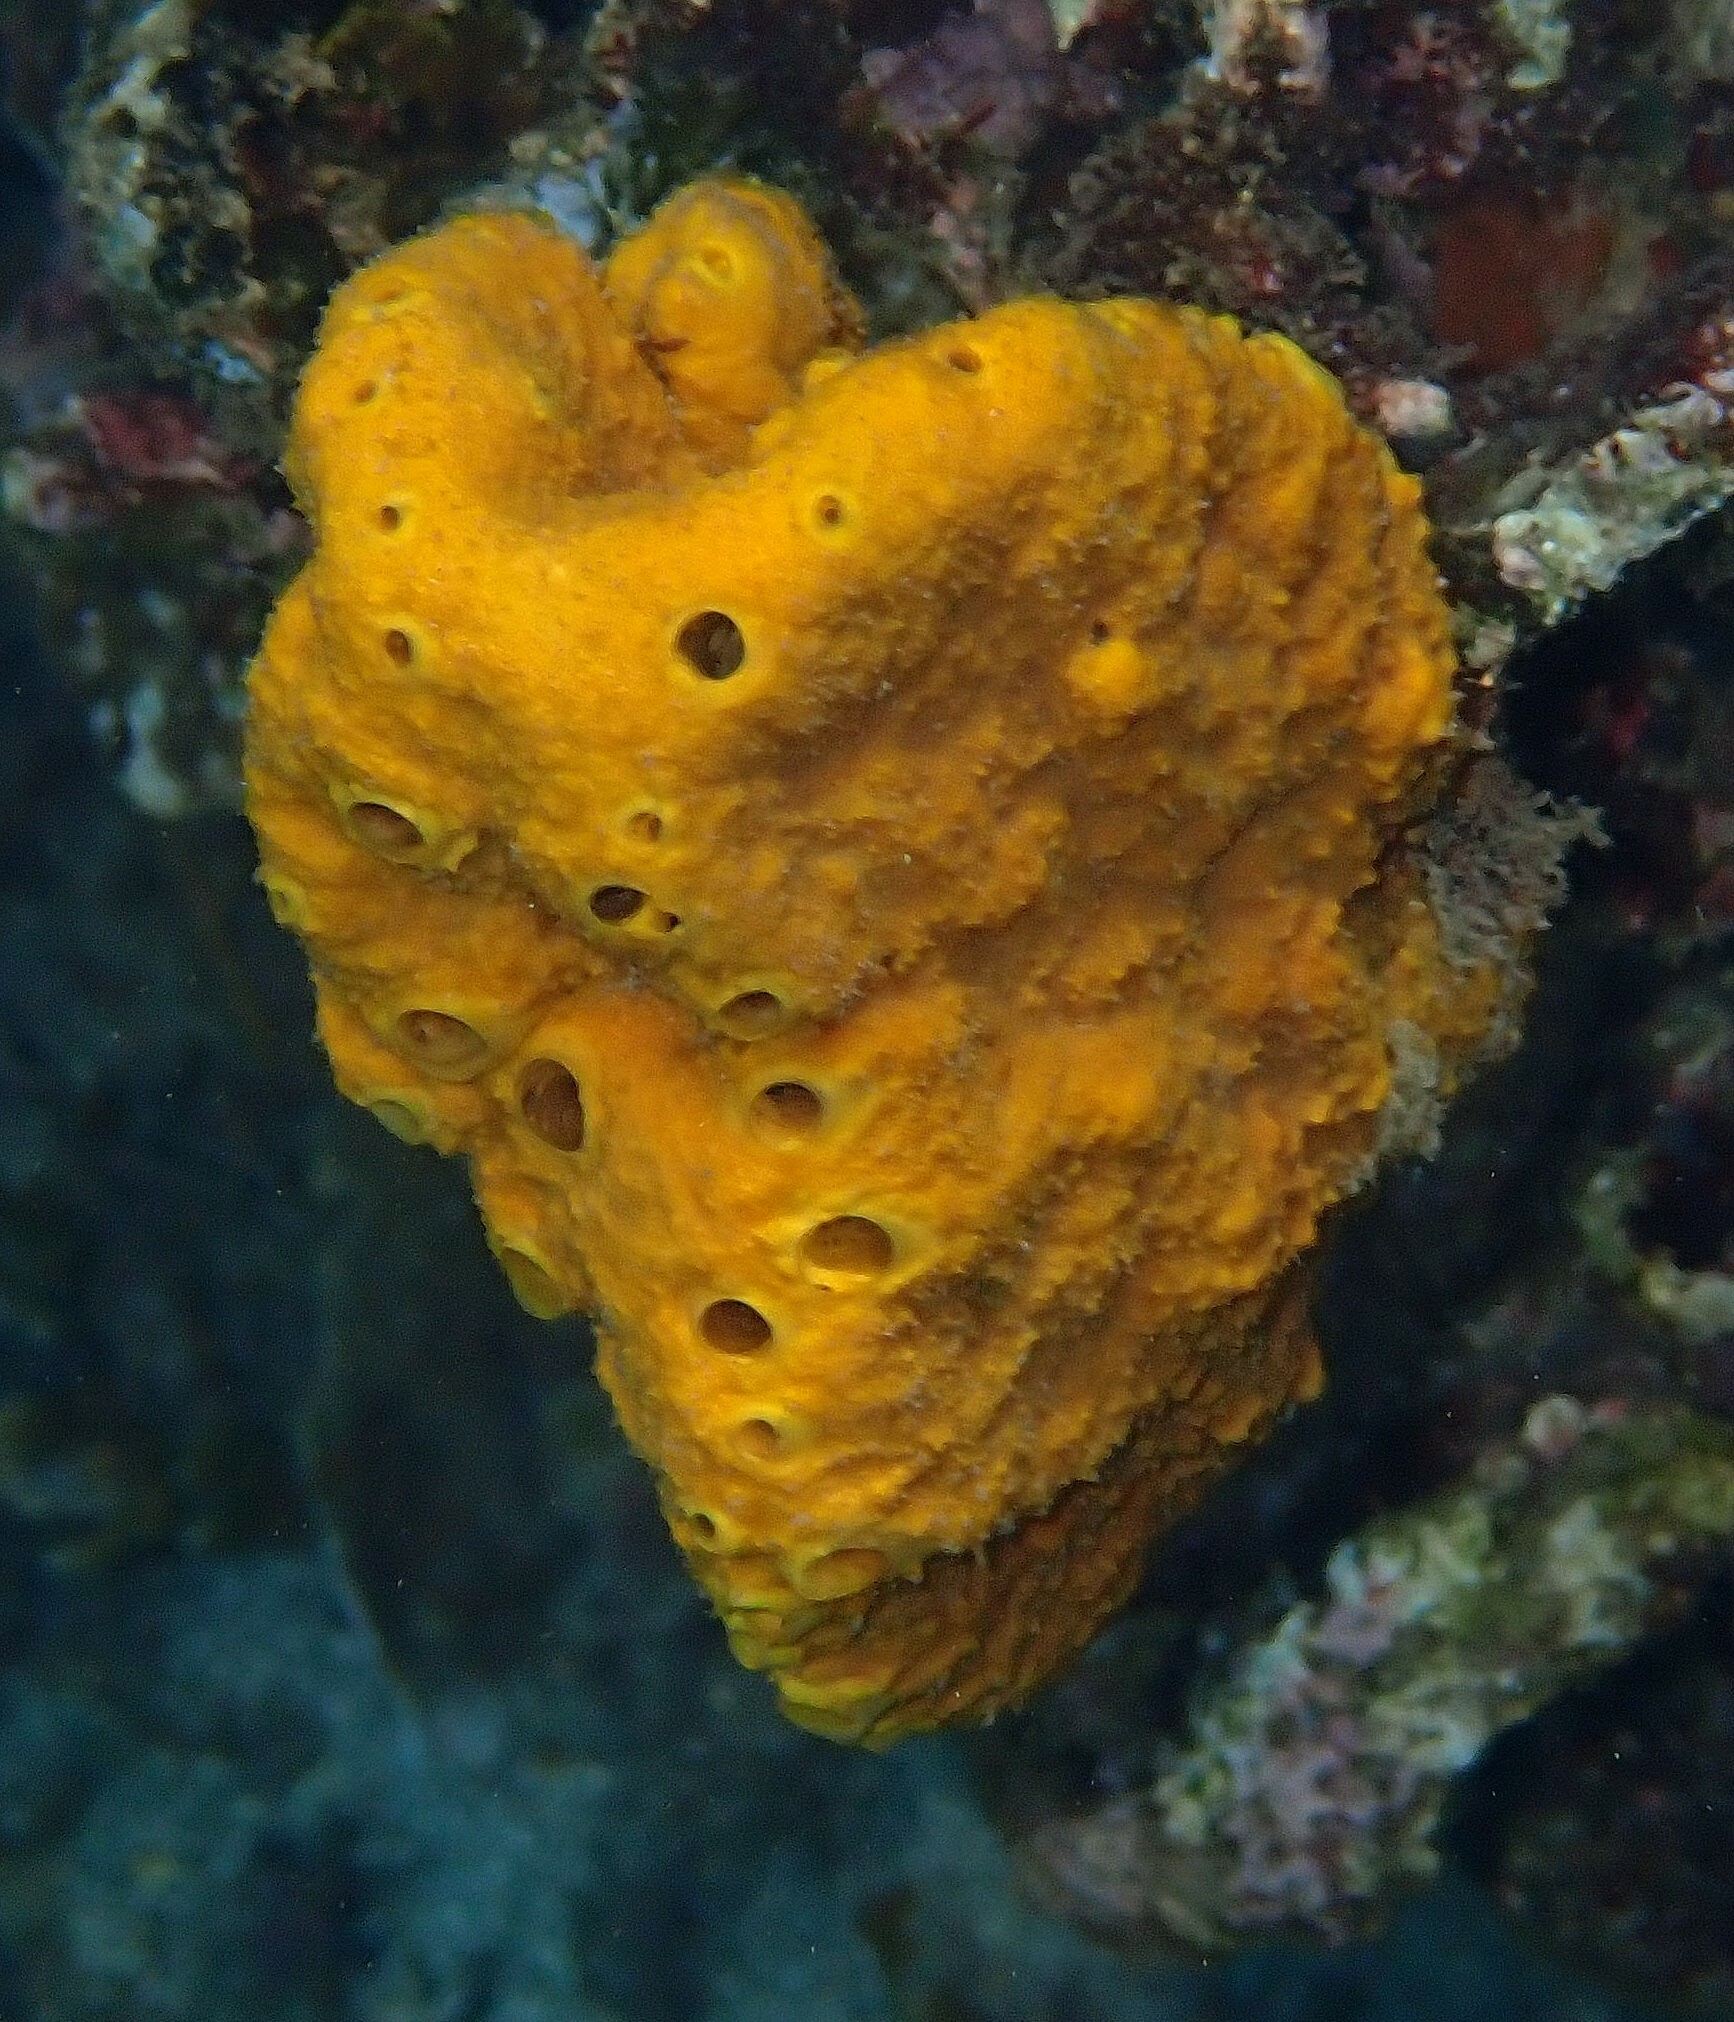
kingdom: Animalia
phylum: Porifera
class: Demospongiae
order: Scopalinida
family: Scopalinidae
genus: Stylissa
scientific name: Stylissa massa
